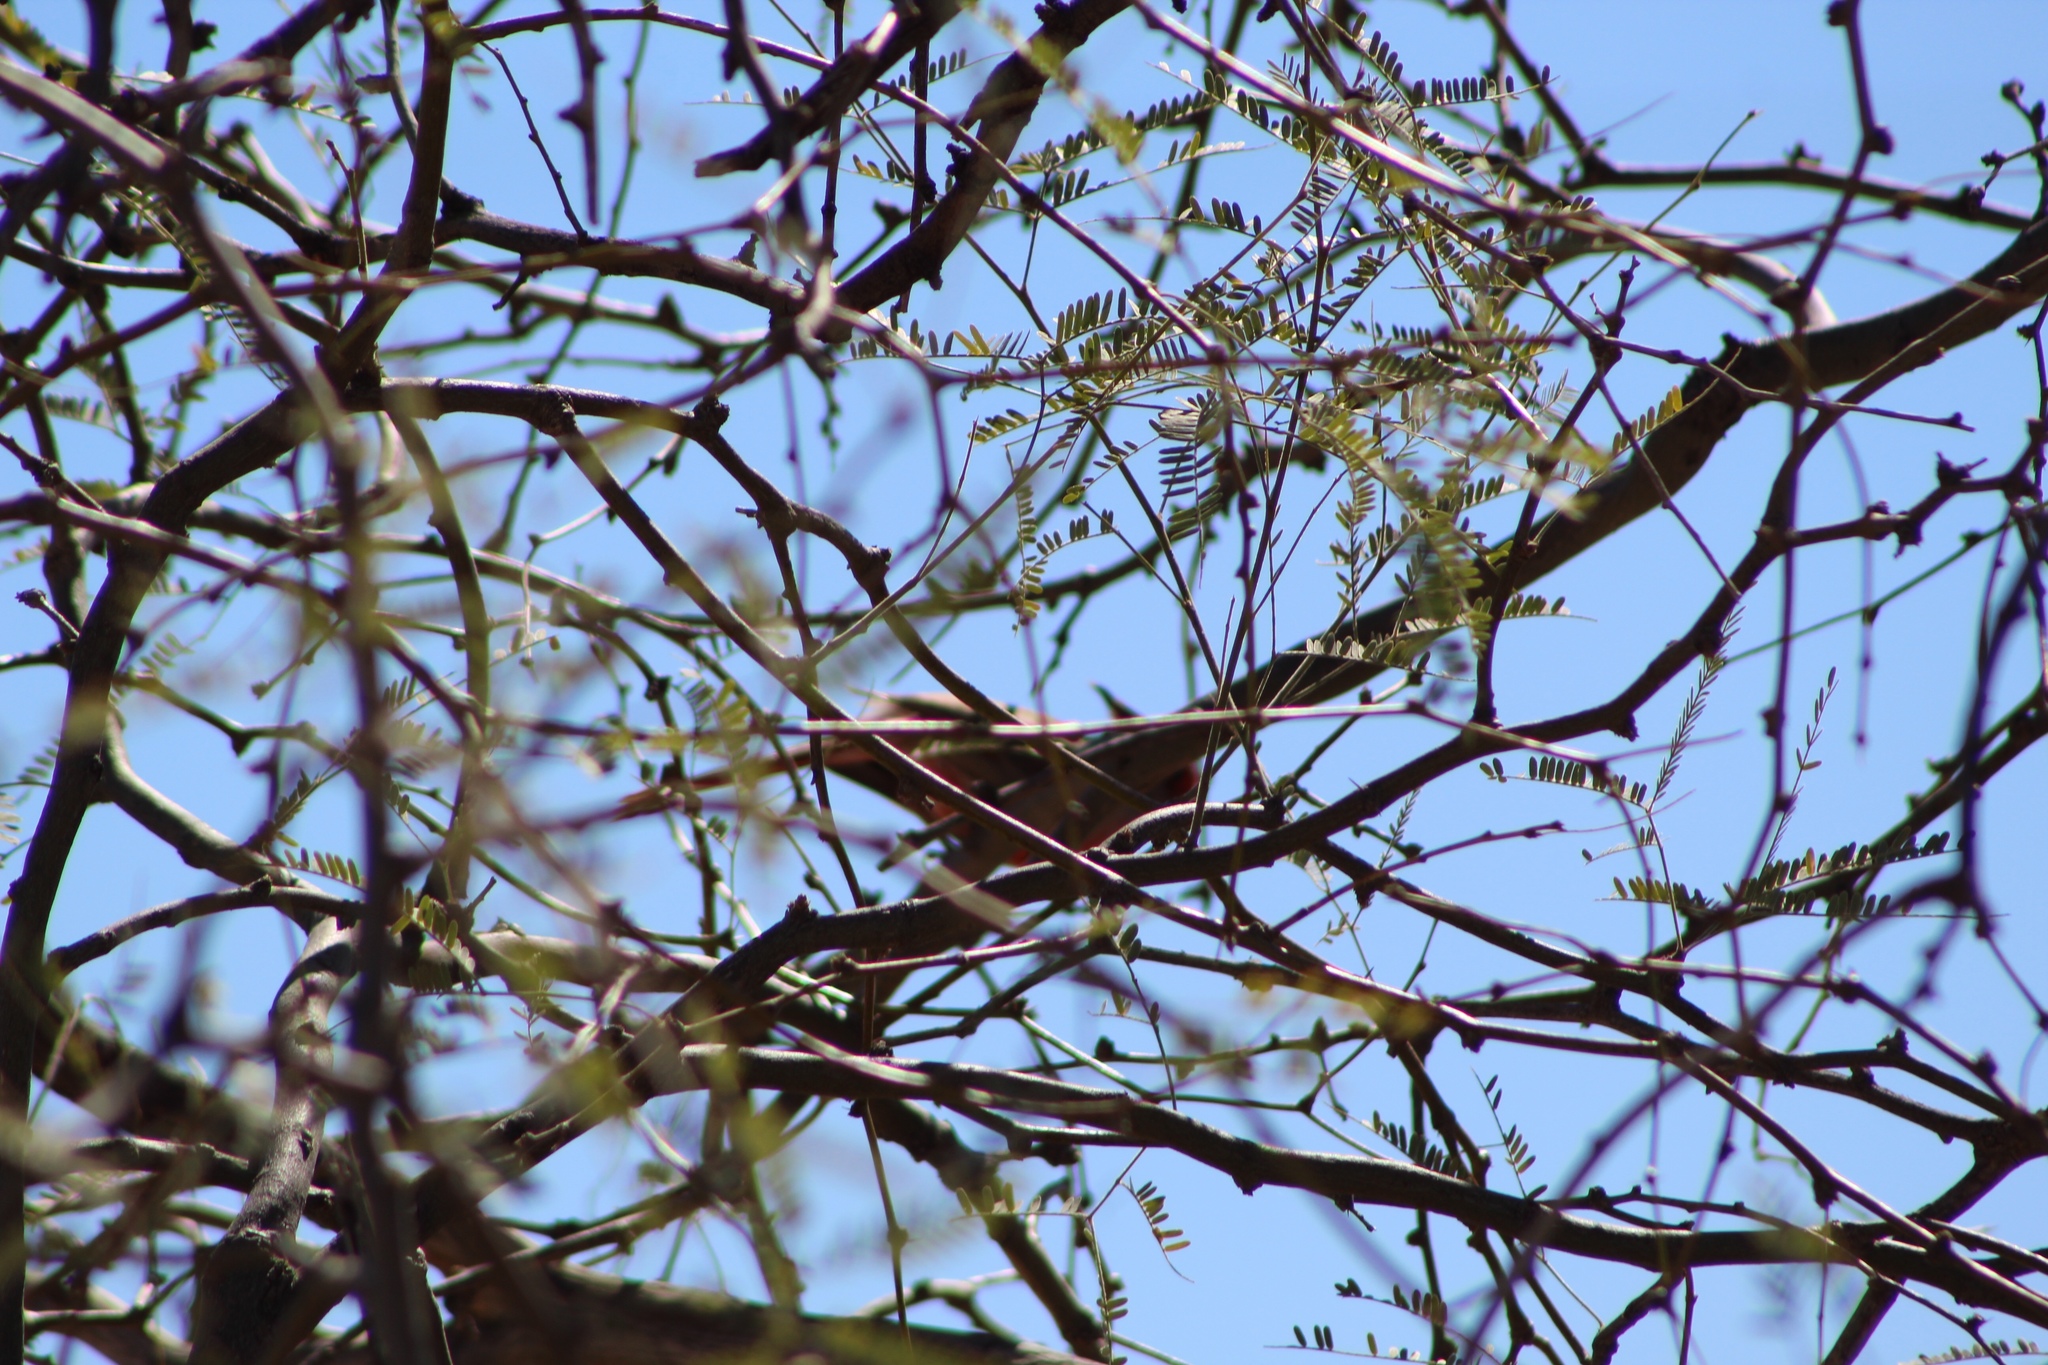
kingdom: Animalia
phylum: Chordata
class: Aves
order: Passeriformes
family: Cardinalidae
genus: Cardinalis
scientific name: Cardinalis sinuatus
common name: Pyrrhuloxia
